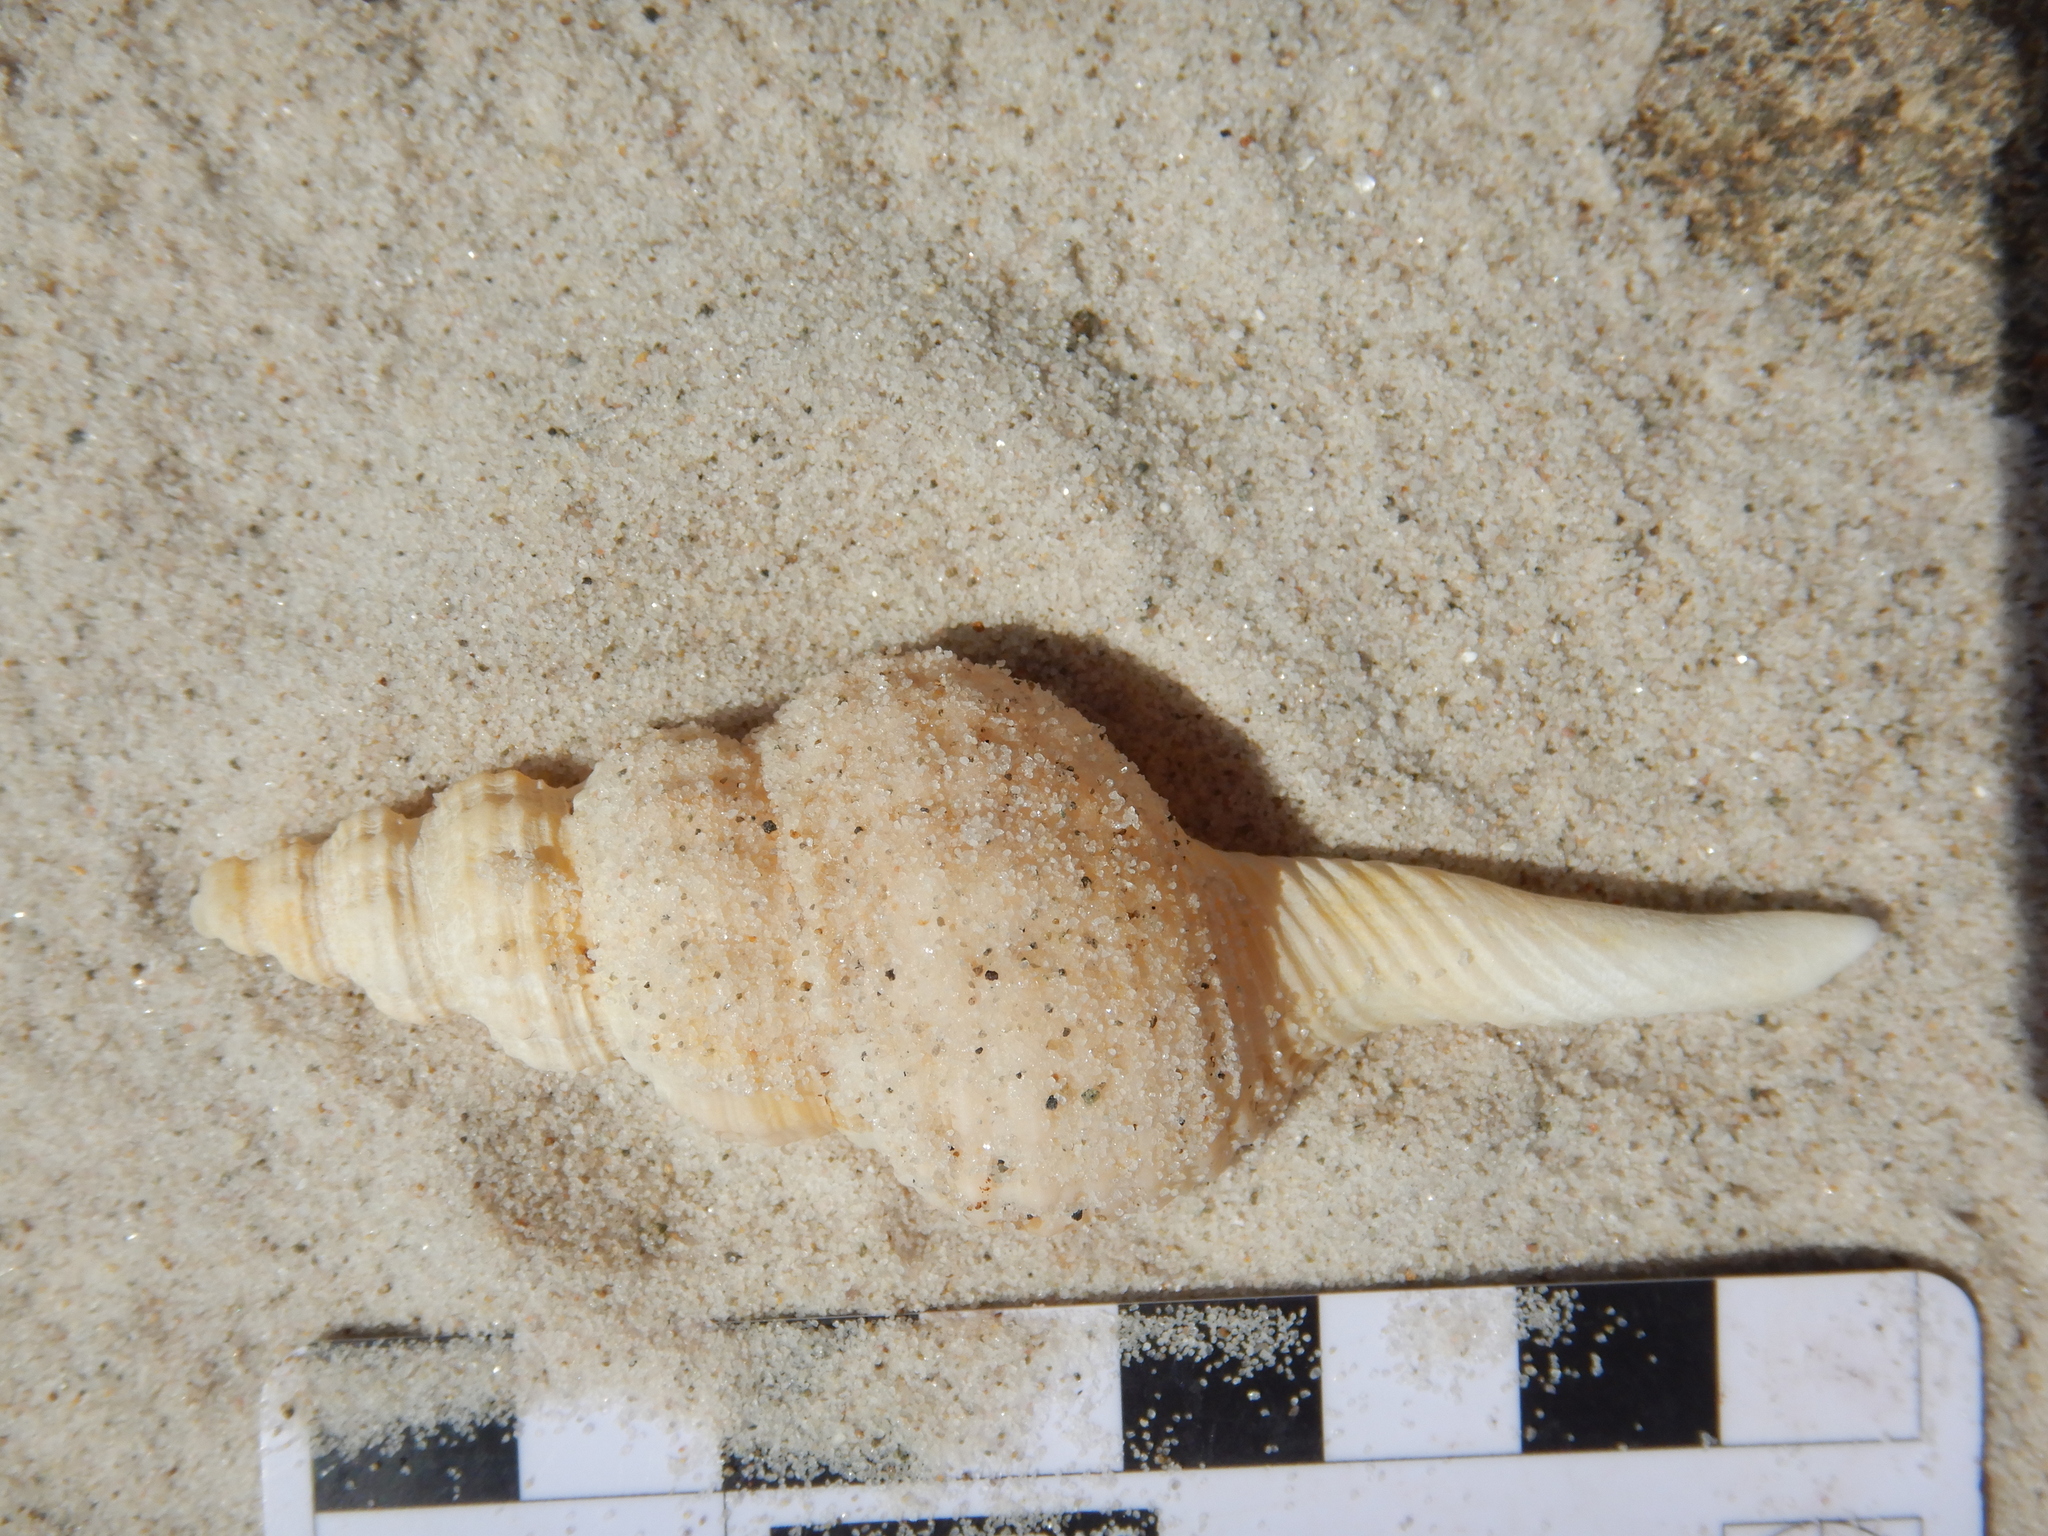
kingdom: Animalia
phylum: Mollusca
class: Gastropoda
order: Neogastropoda
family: Fasciolariidae
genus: Propefusus
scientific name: Propefusus novaehollandiae
